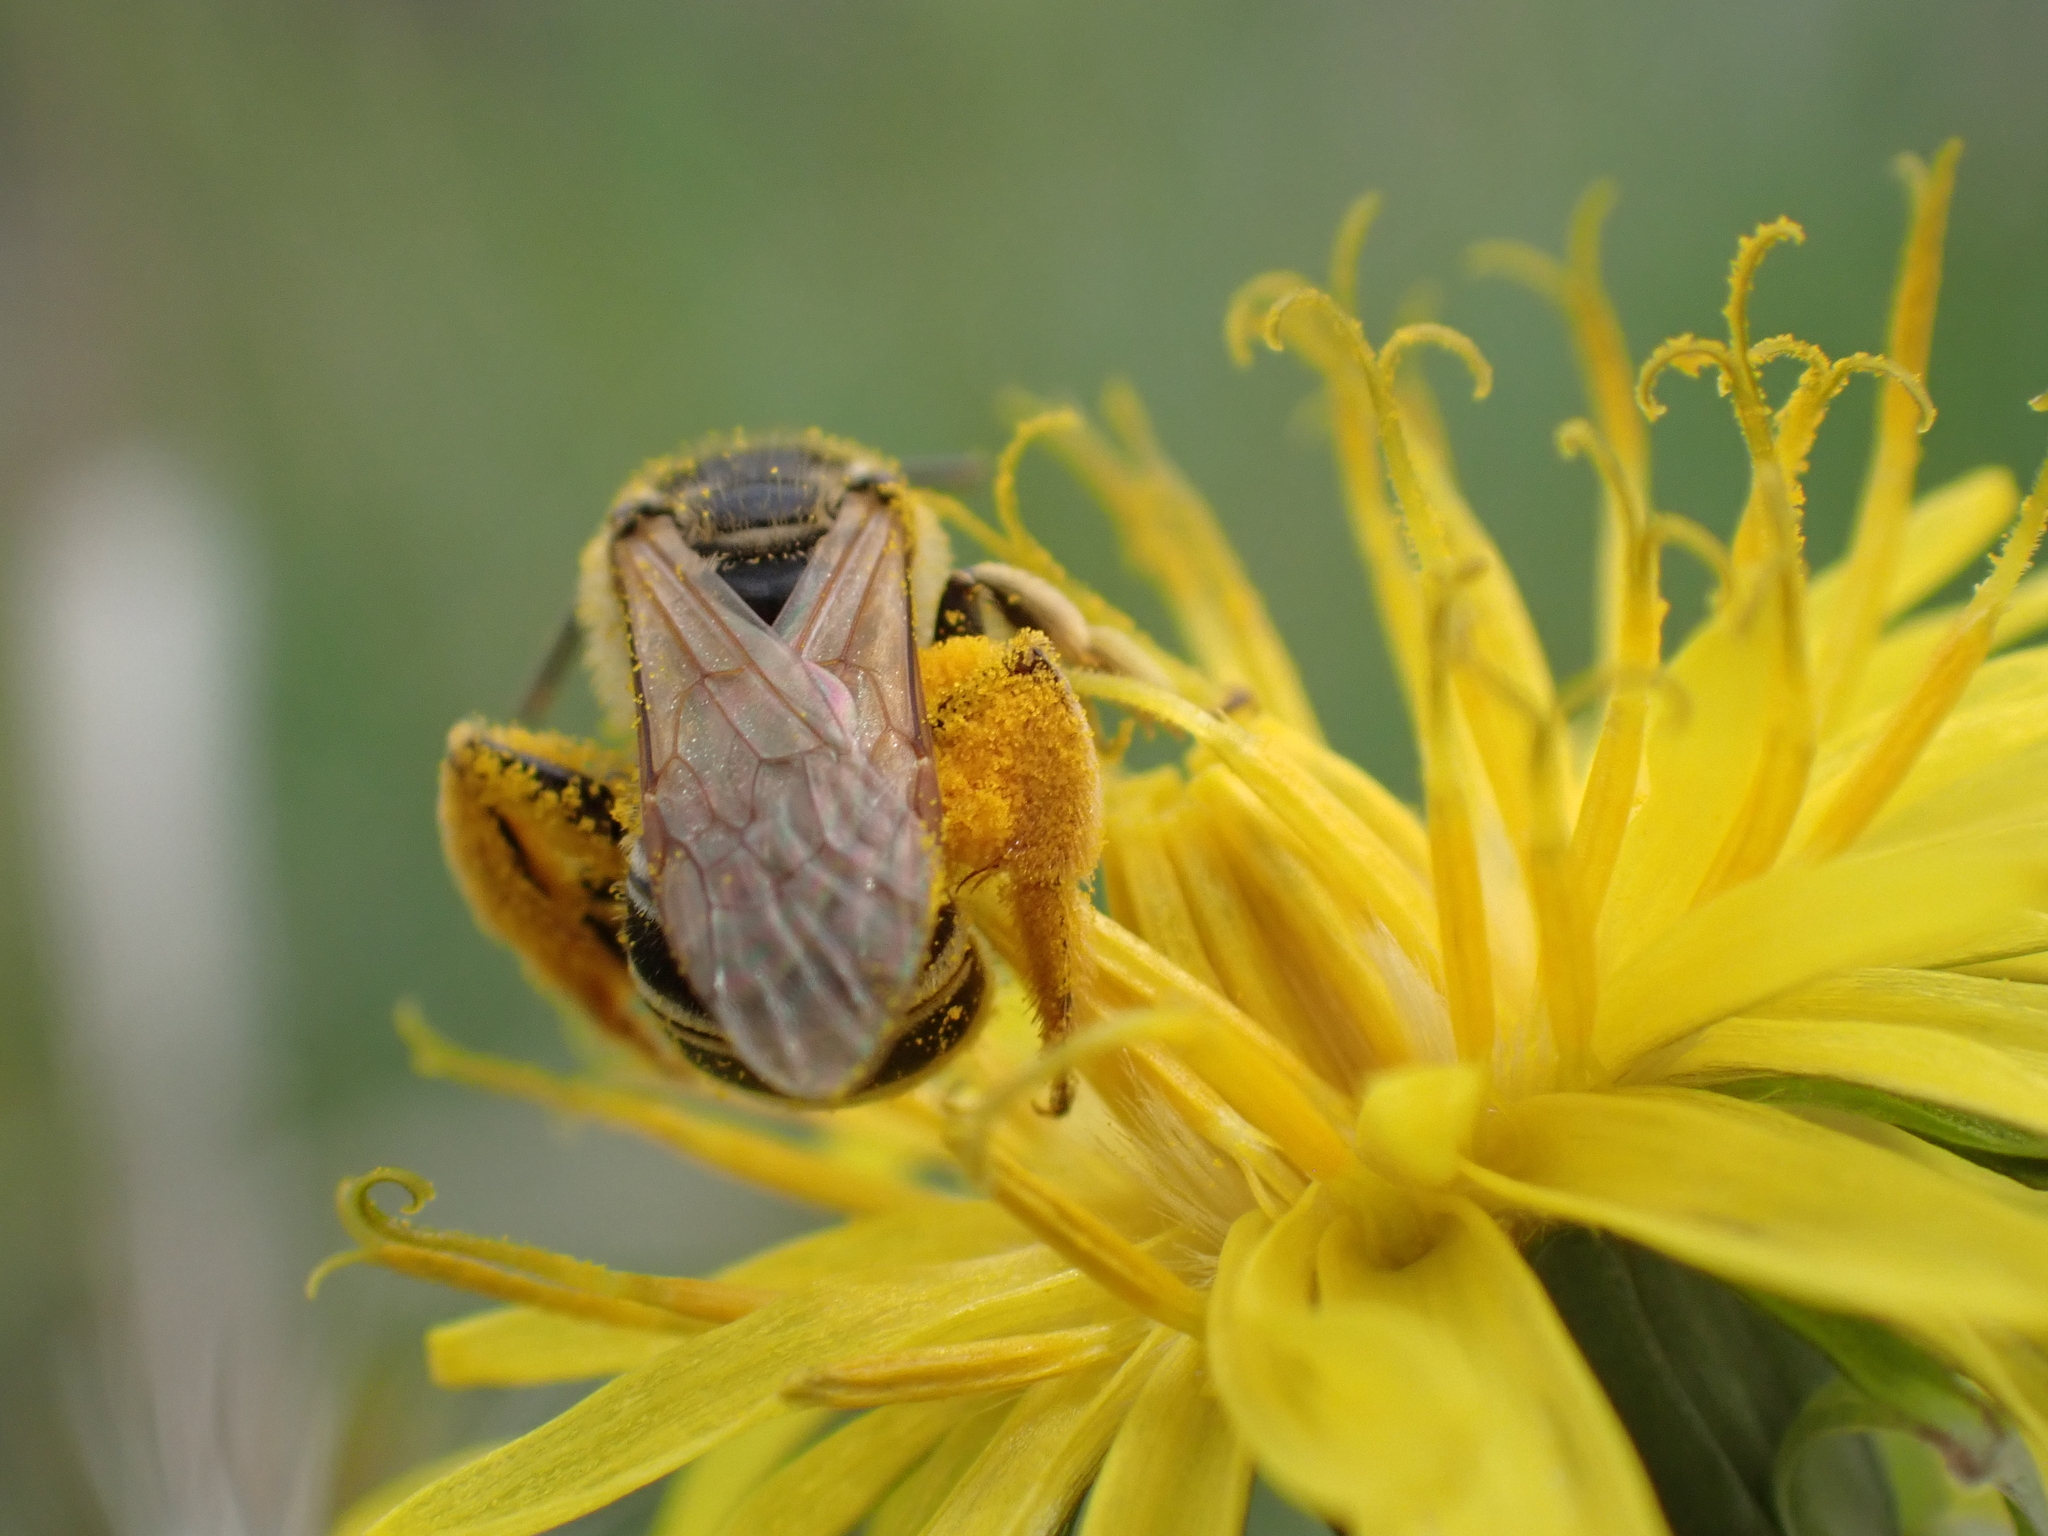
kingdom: Animalia
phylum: Arthropoda
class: Insecta
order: Hymenoptera
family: Halictidae
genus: Halictus
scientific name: Halictus ligatus
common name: Ligated furrow bee
